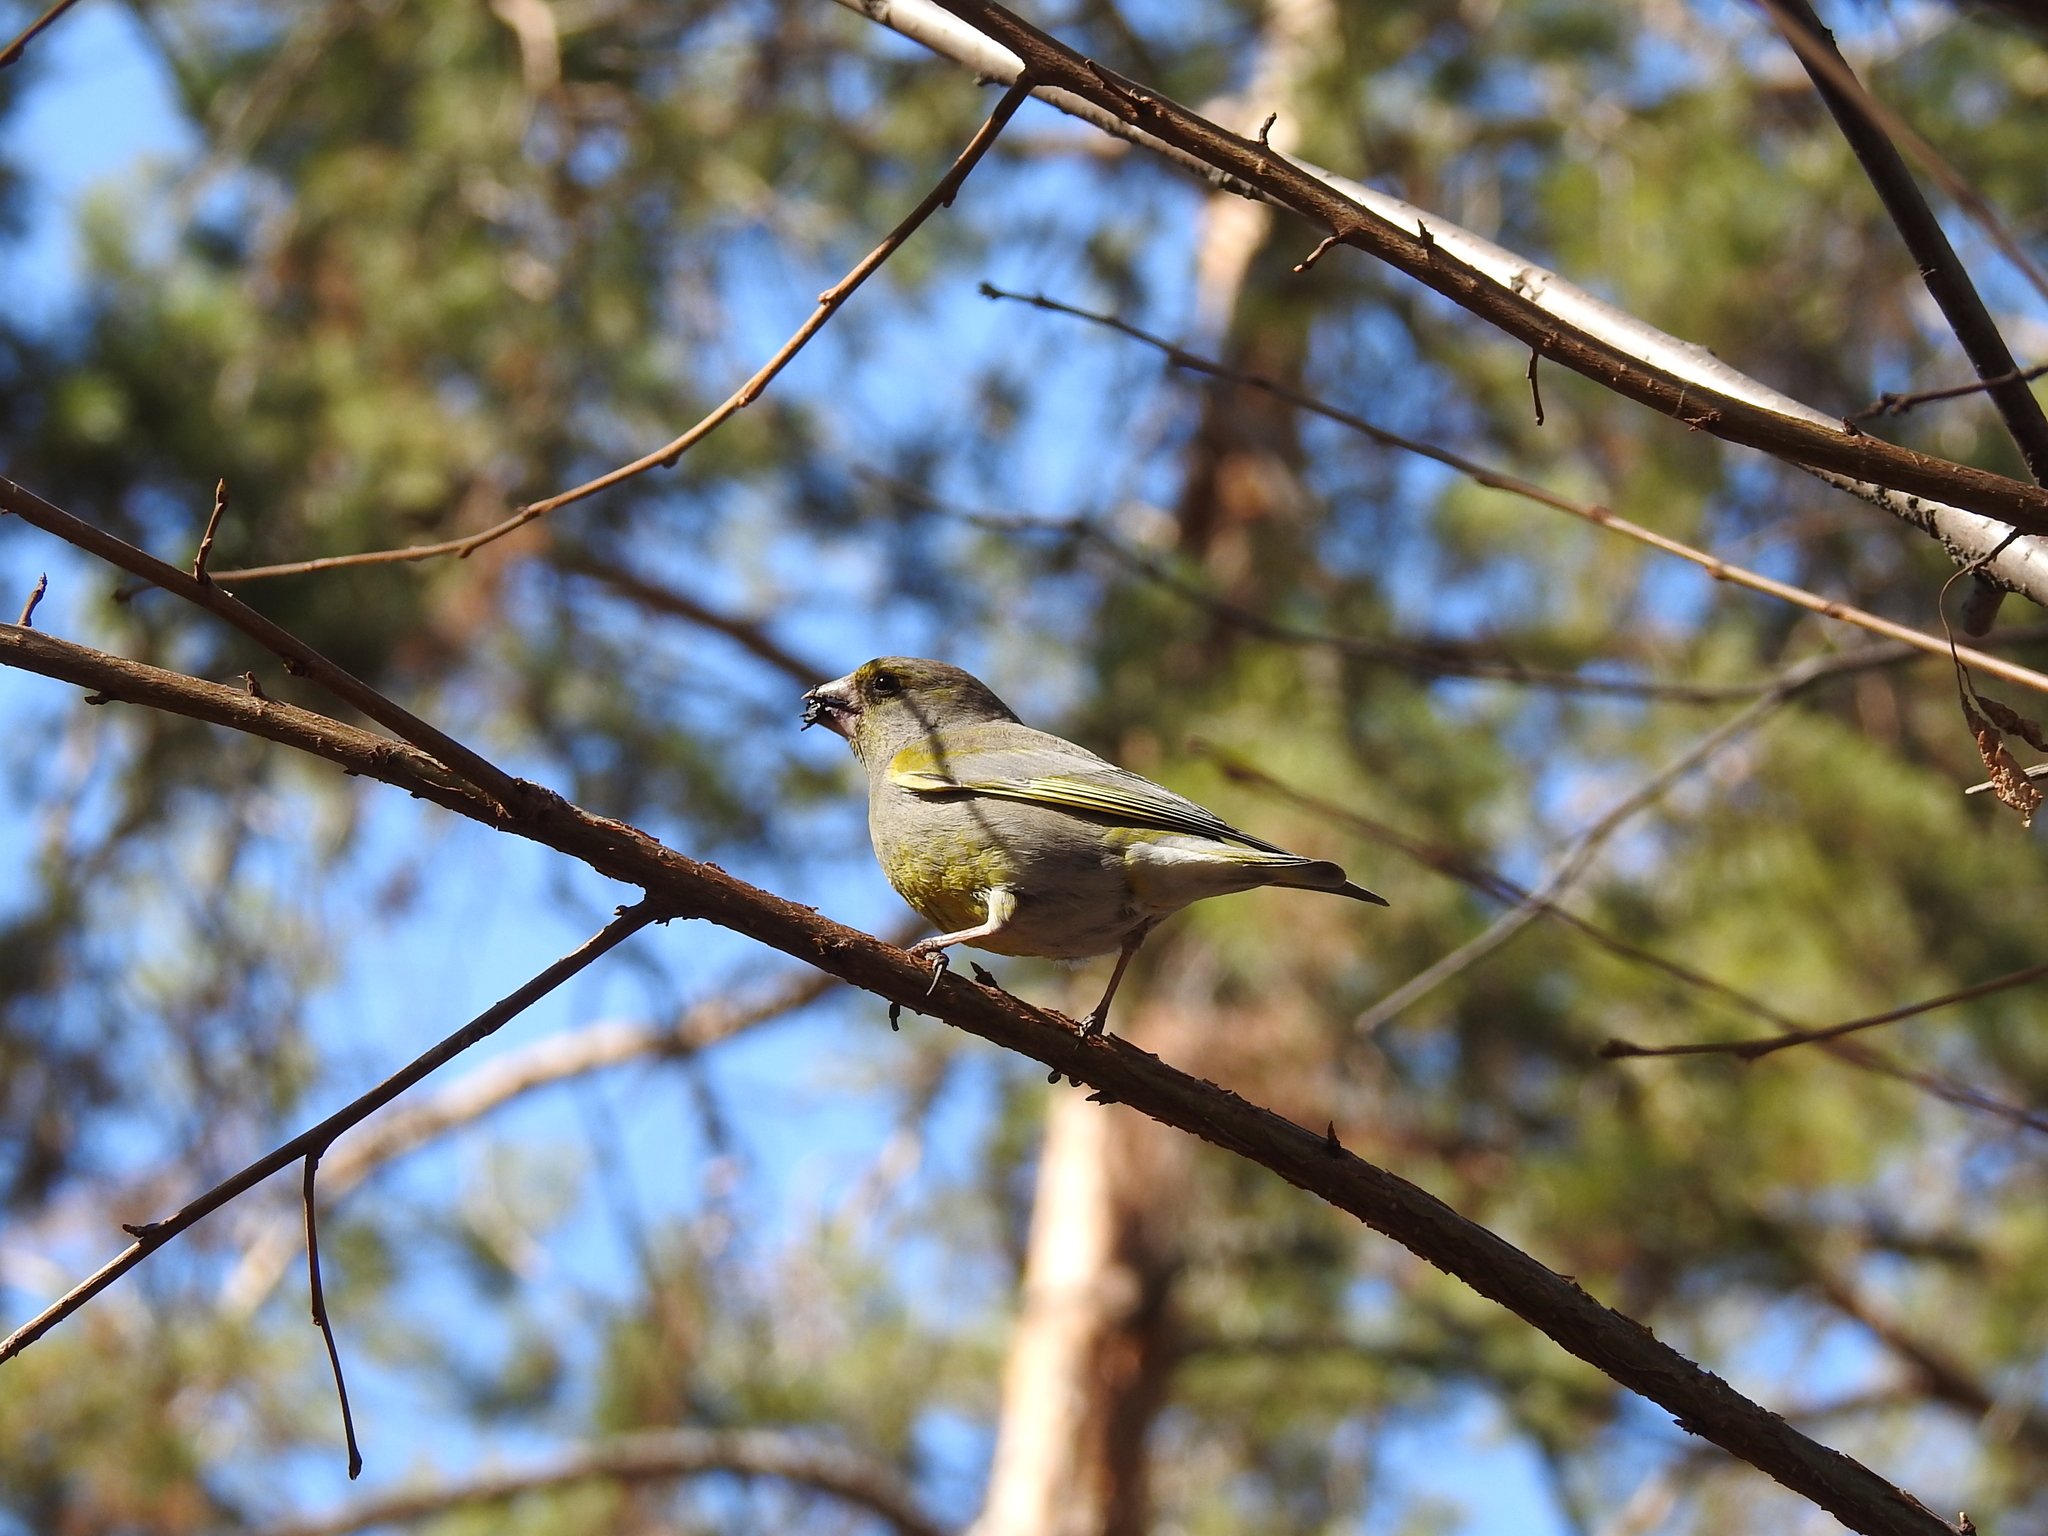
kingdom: Plantae
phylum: Tracheophyta
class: Liliopsida
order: Poales
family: Poaceae
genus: Chloris
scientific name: Chloris chloris
